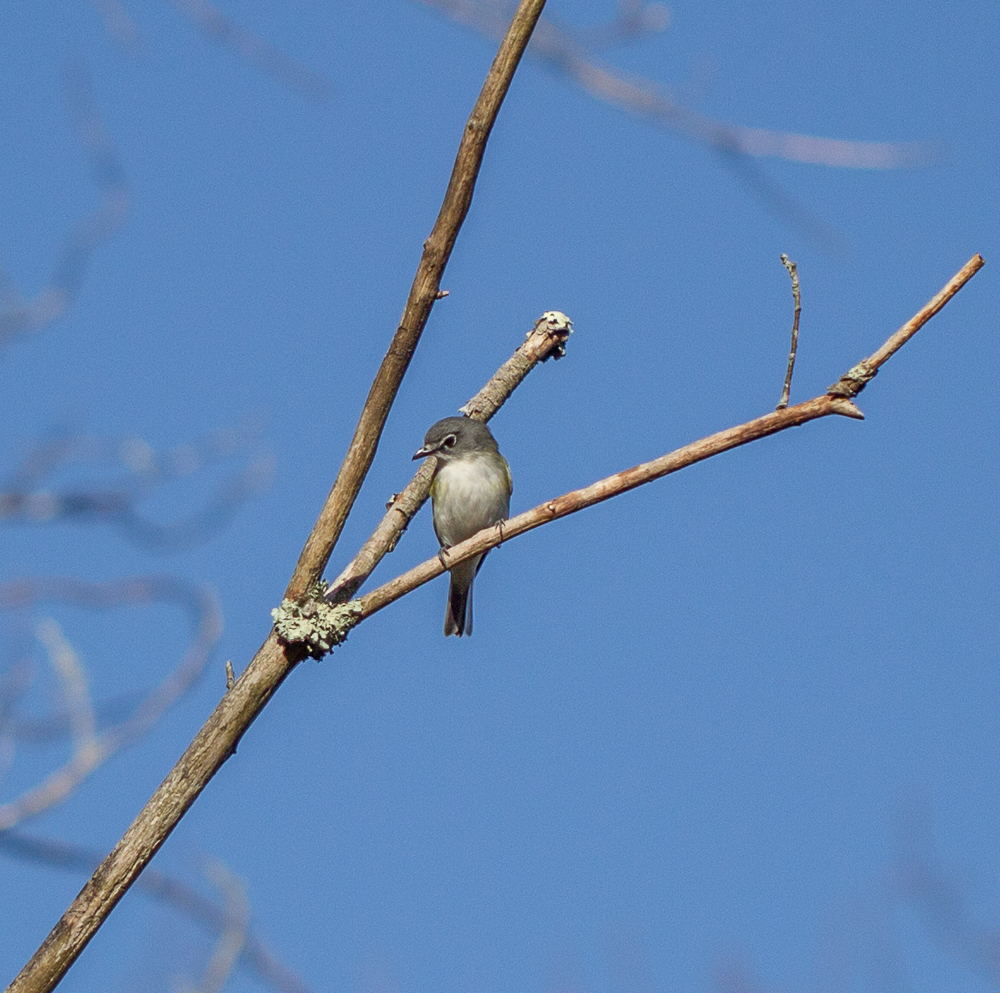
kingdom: Animalia
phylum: Chordata
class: Aves
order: Passeriformes
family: Vireonidae
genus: Vireo
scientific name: Vireo solitarius
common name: Blue-headed vireo
